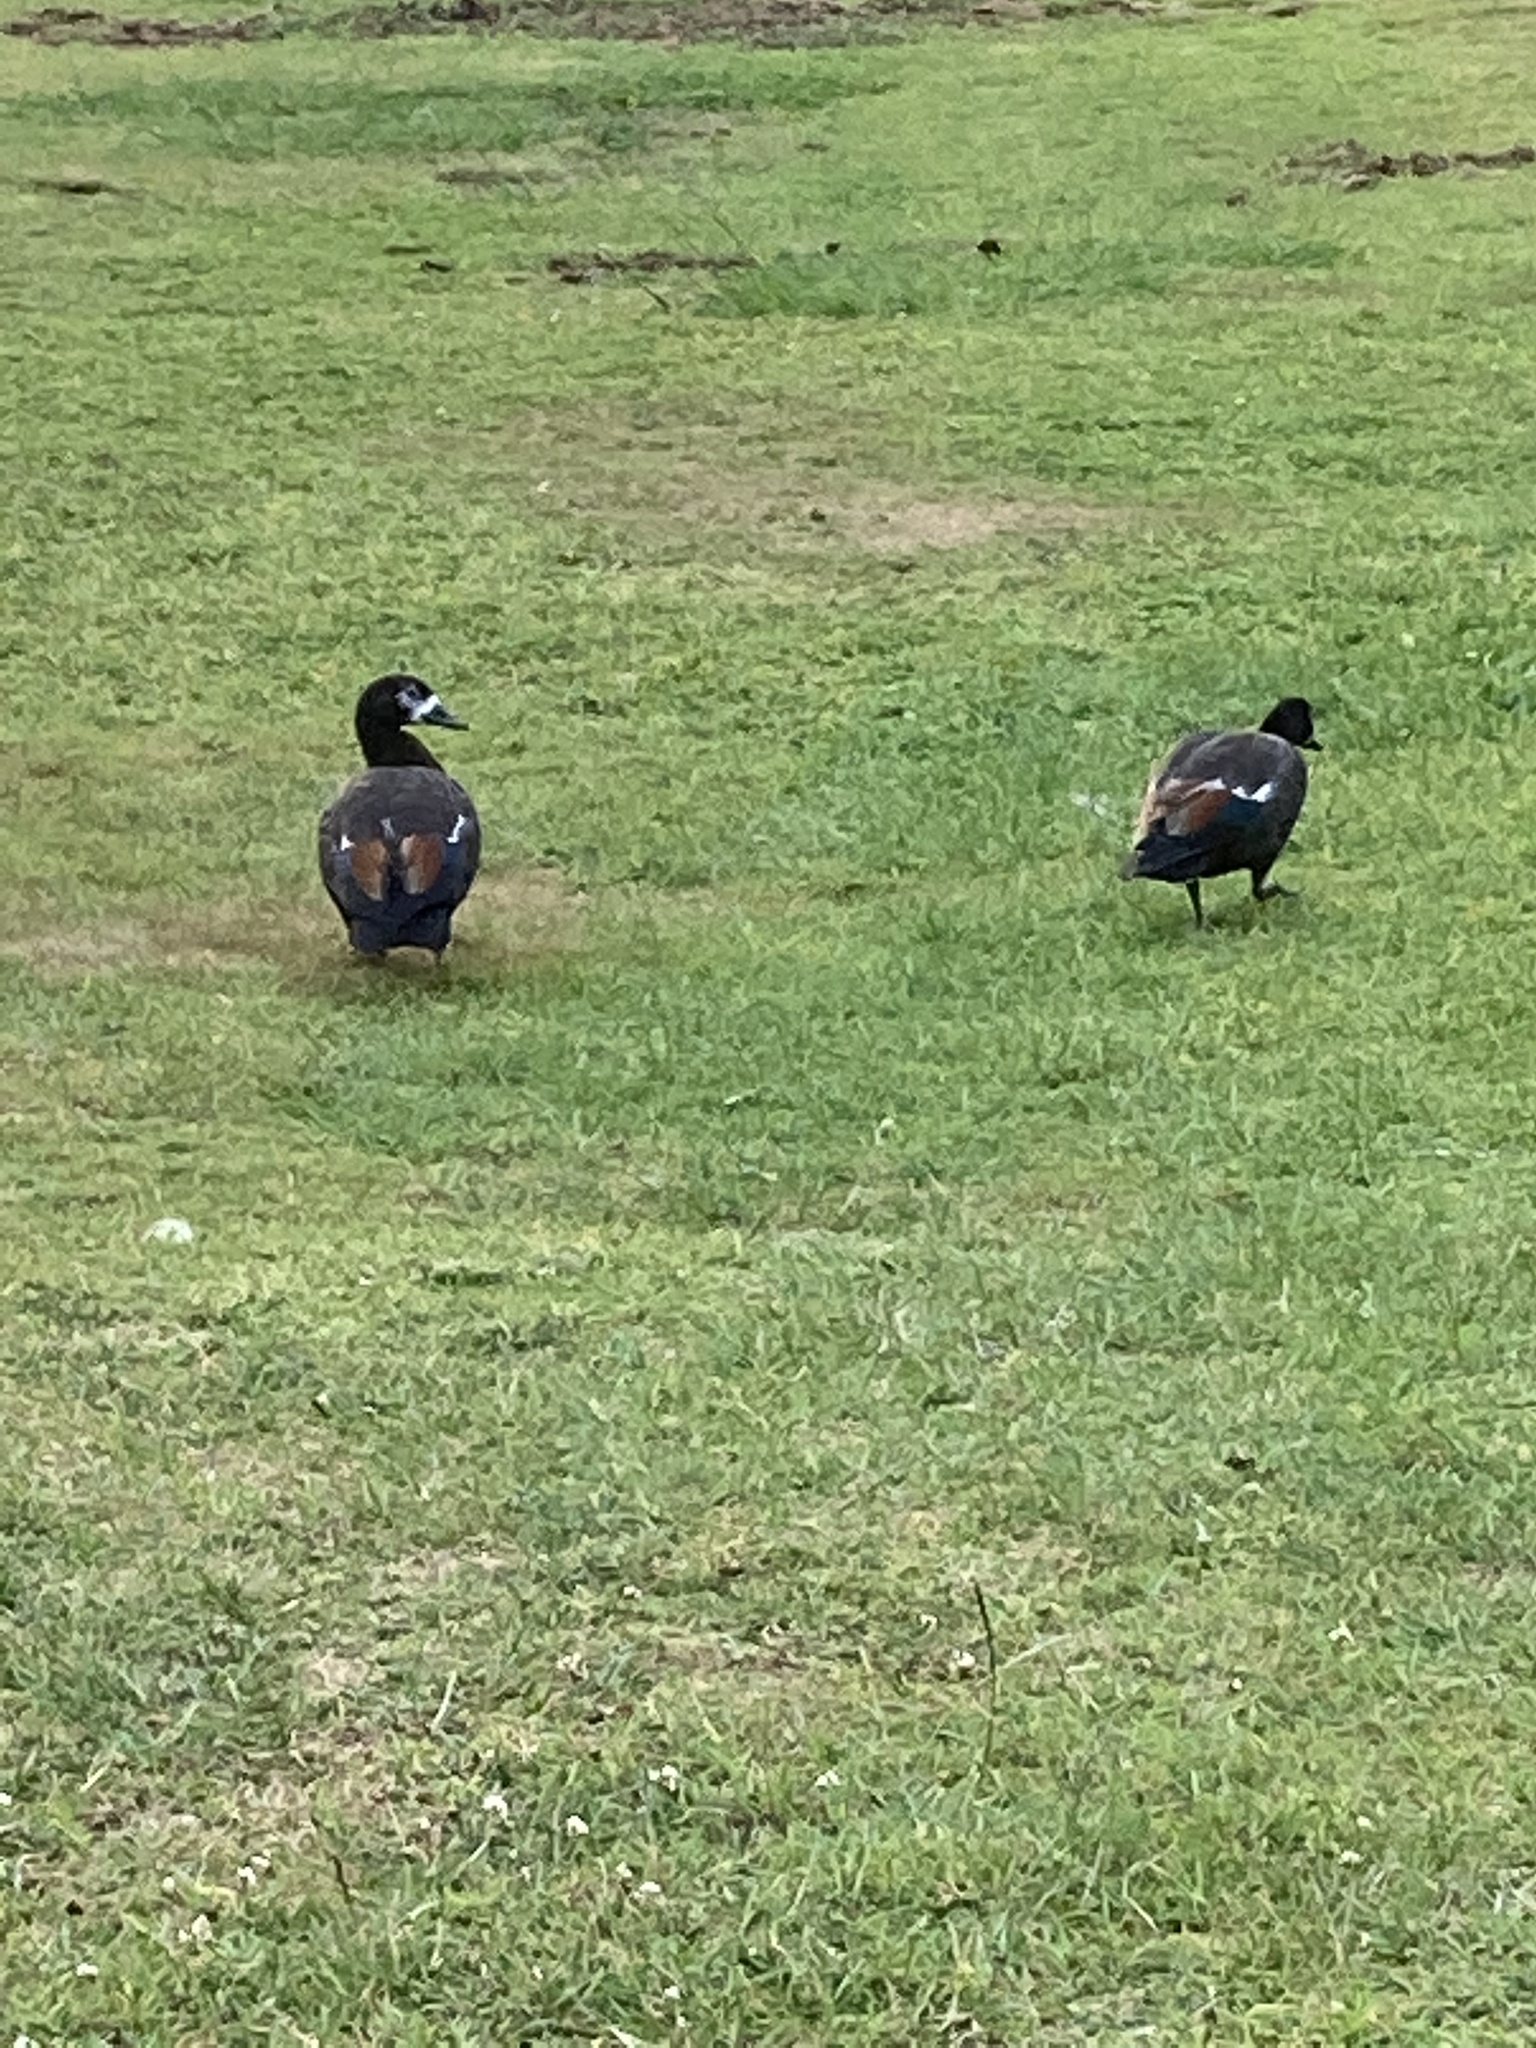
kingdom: Animalia
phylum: Chordata
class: Aves
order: Anseriformes
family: Anatidae
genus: Tadorna
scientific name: Tadorna variegata
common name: Paradise shelduck
